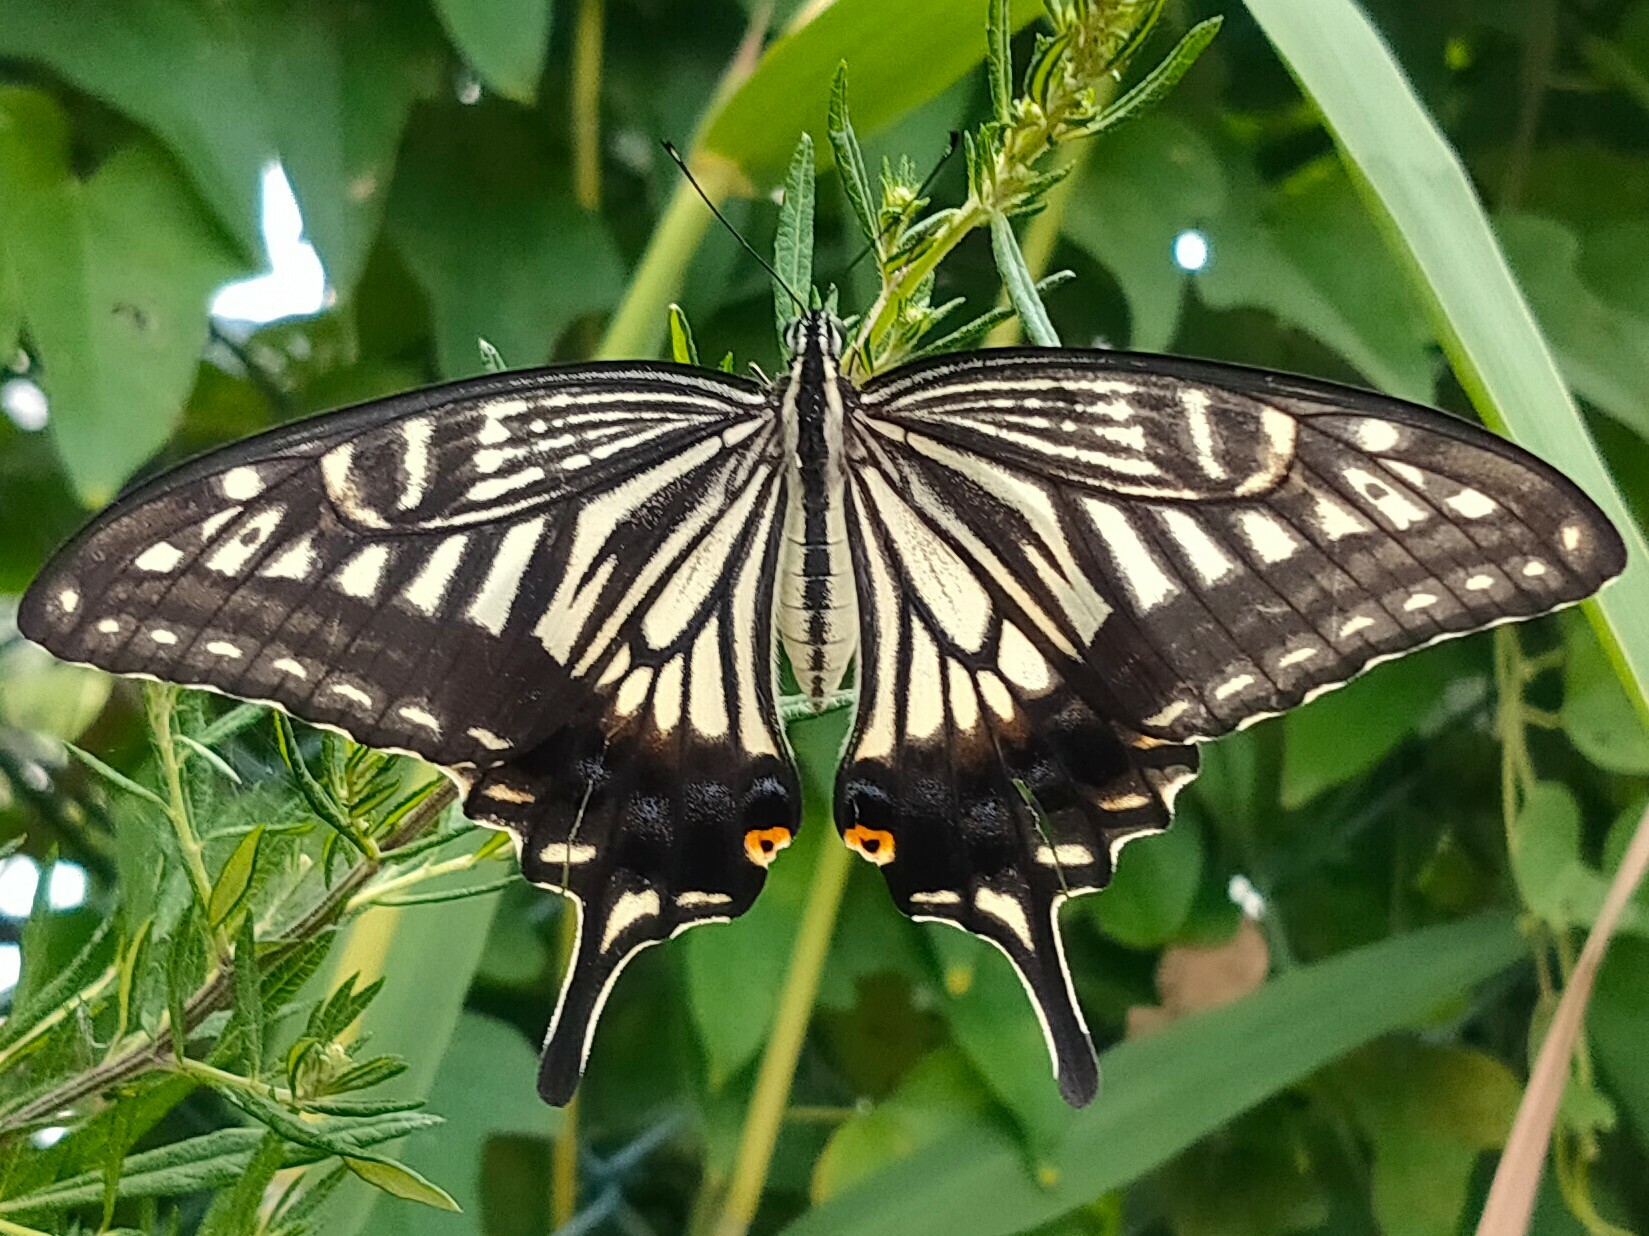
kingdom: Animalia
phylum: Arthropoda
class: Insecta
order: Lepidoptera
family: Papilionidae
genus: Papilio
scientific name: Papilio xuthus
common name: Asian swallowtail
